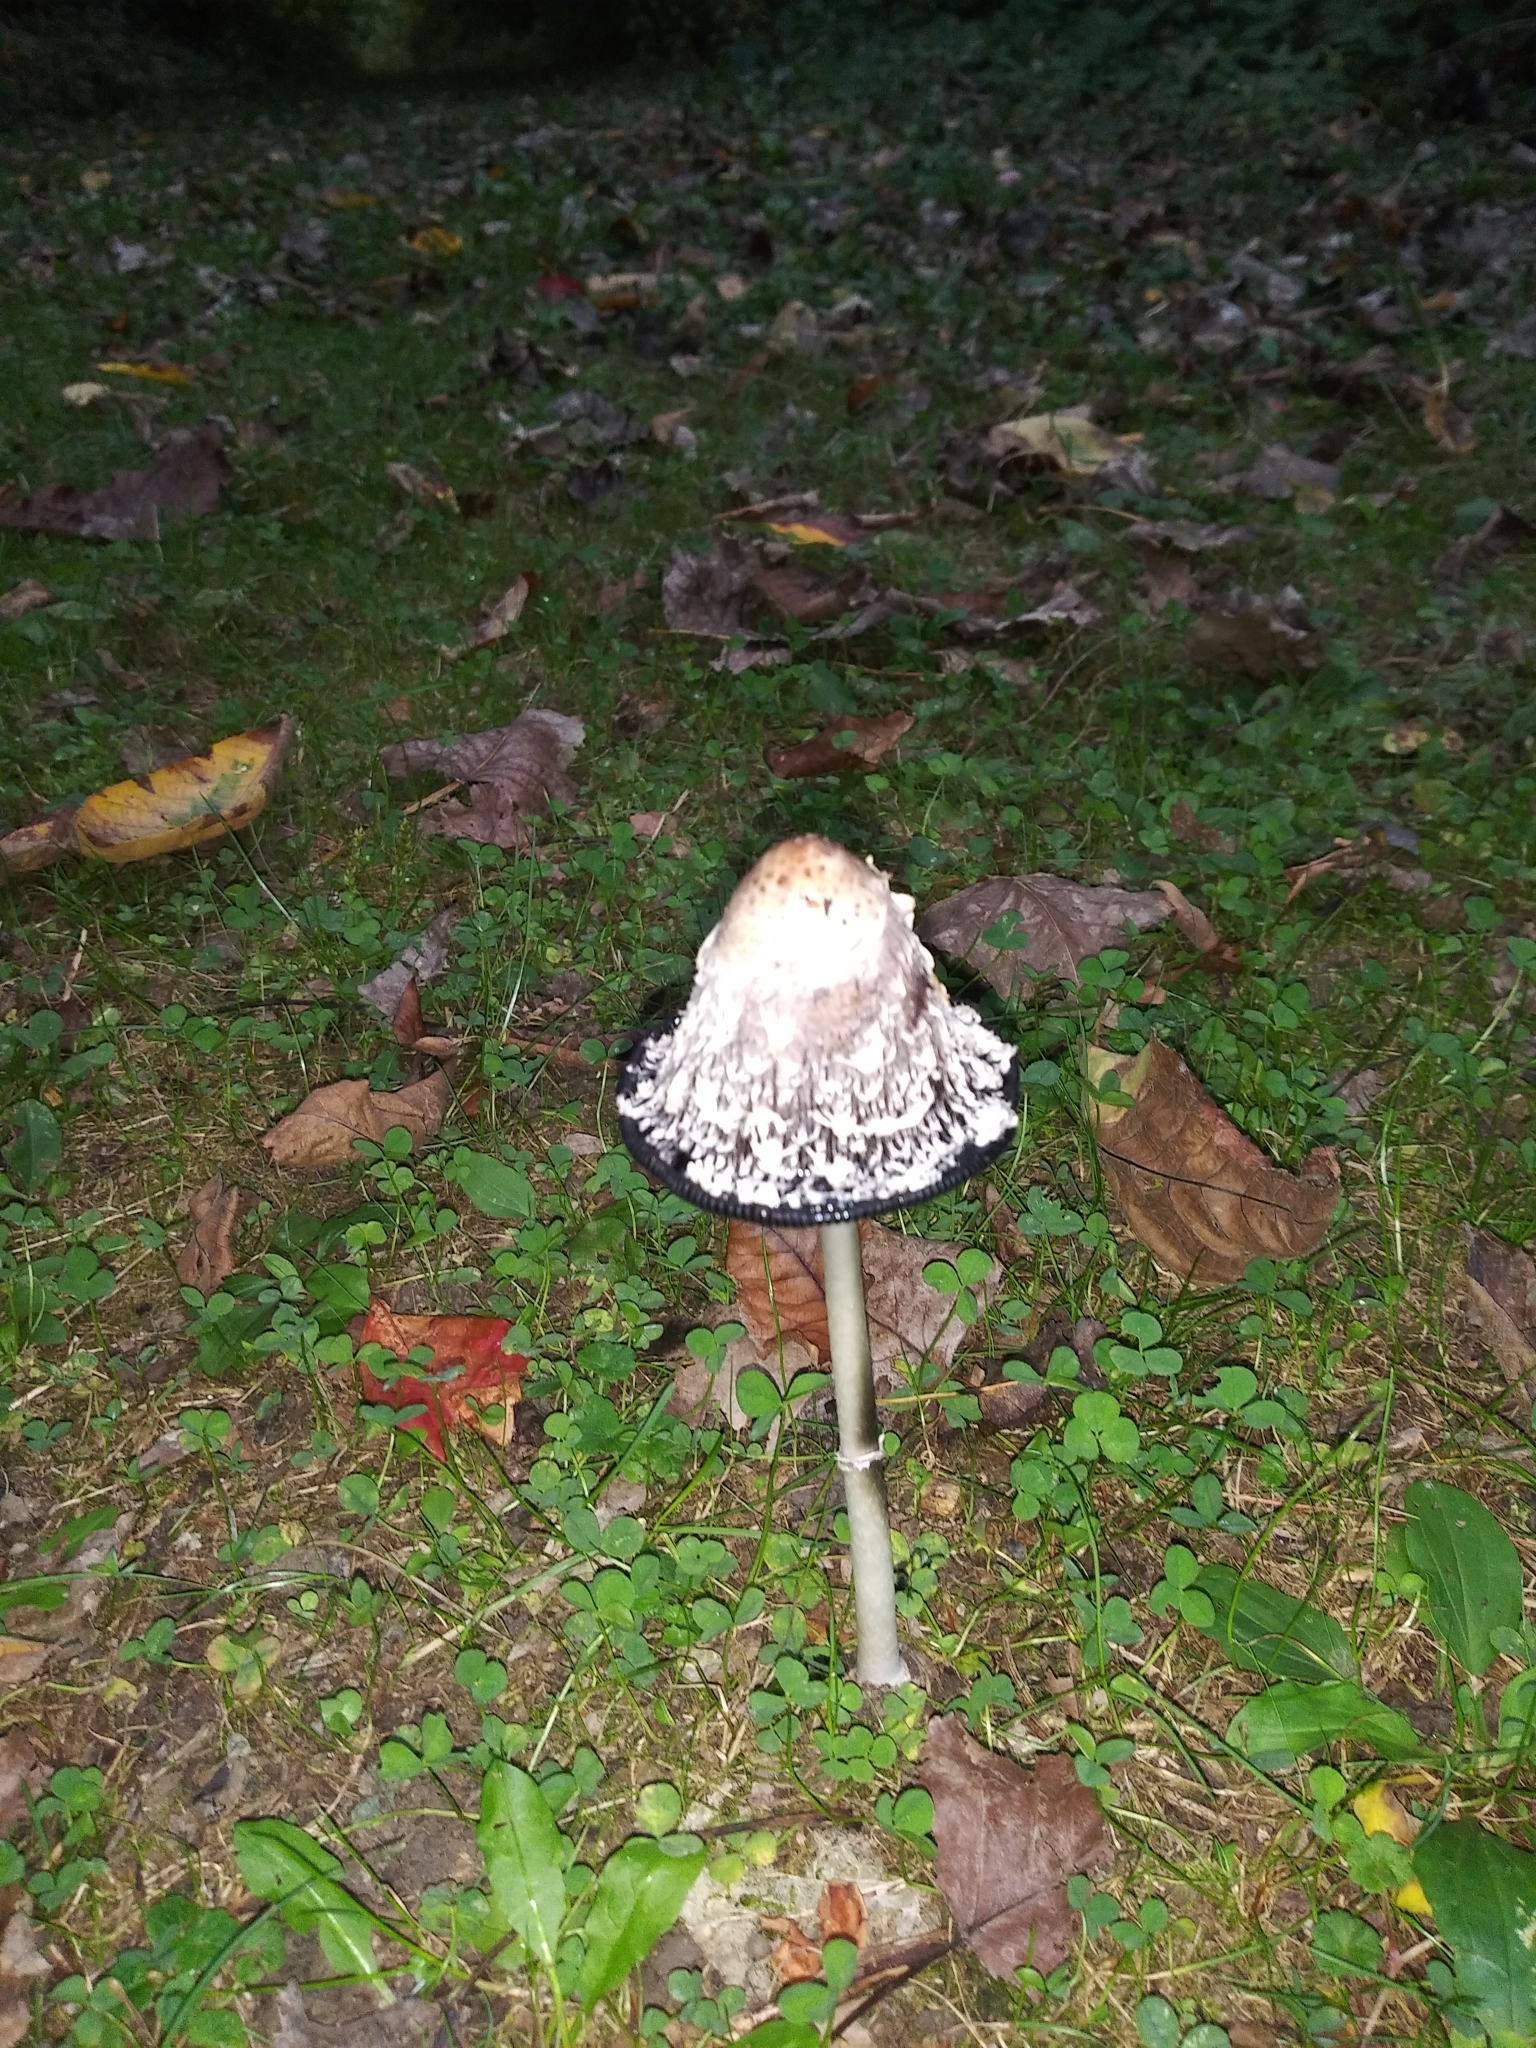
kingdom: Fungi
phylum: Basidiomycota
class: Agaricomycetes
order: Agaricales
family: Agaricaceae
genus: Coprinus
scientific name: Coprinus comatus
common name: Lawyer's wig
